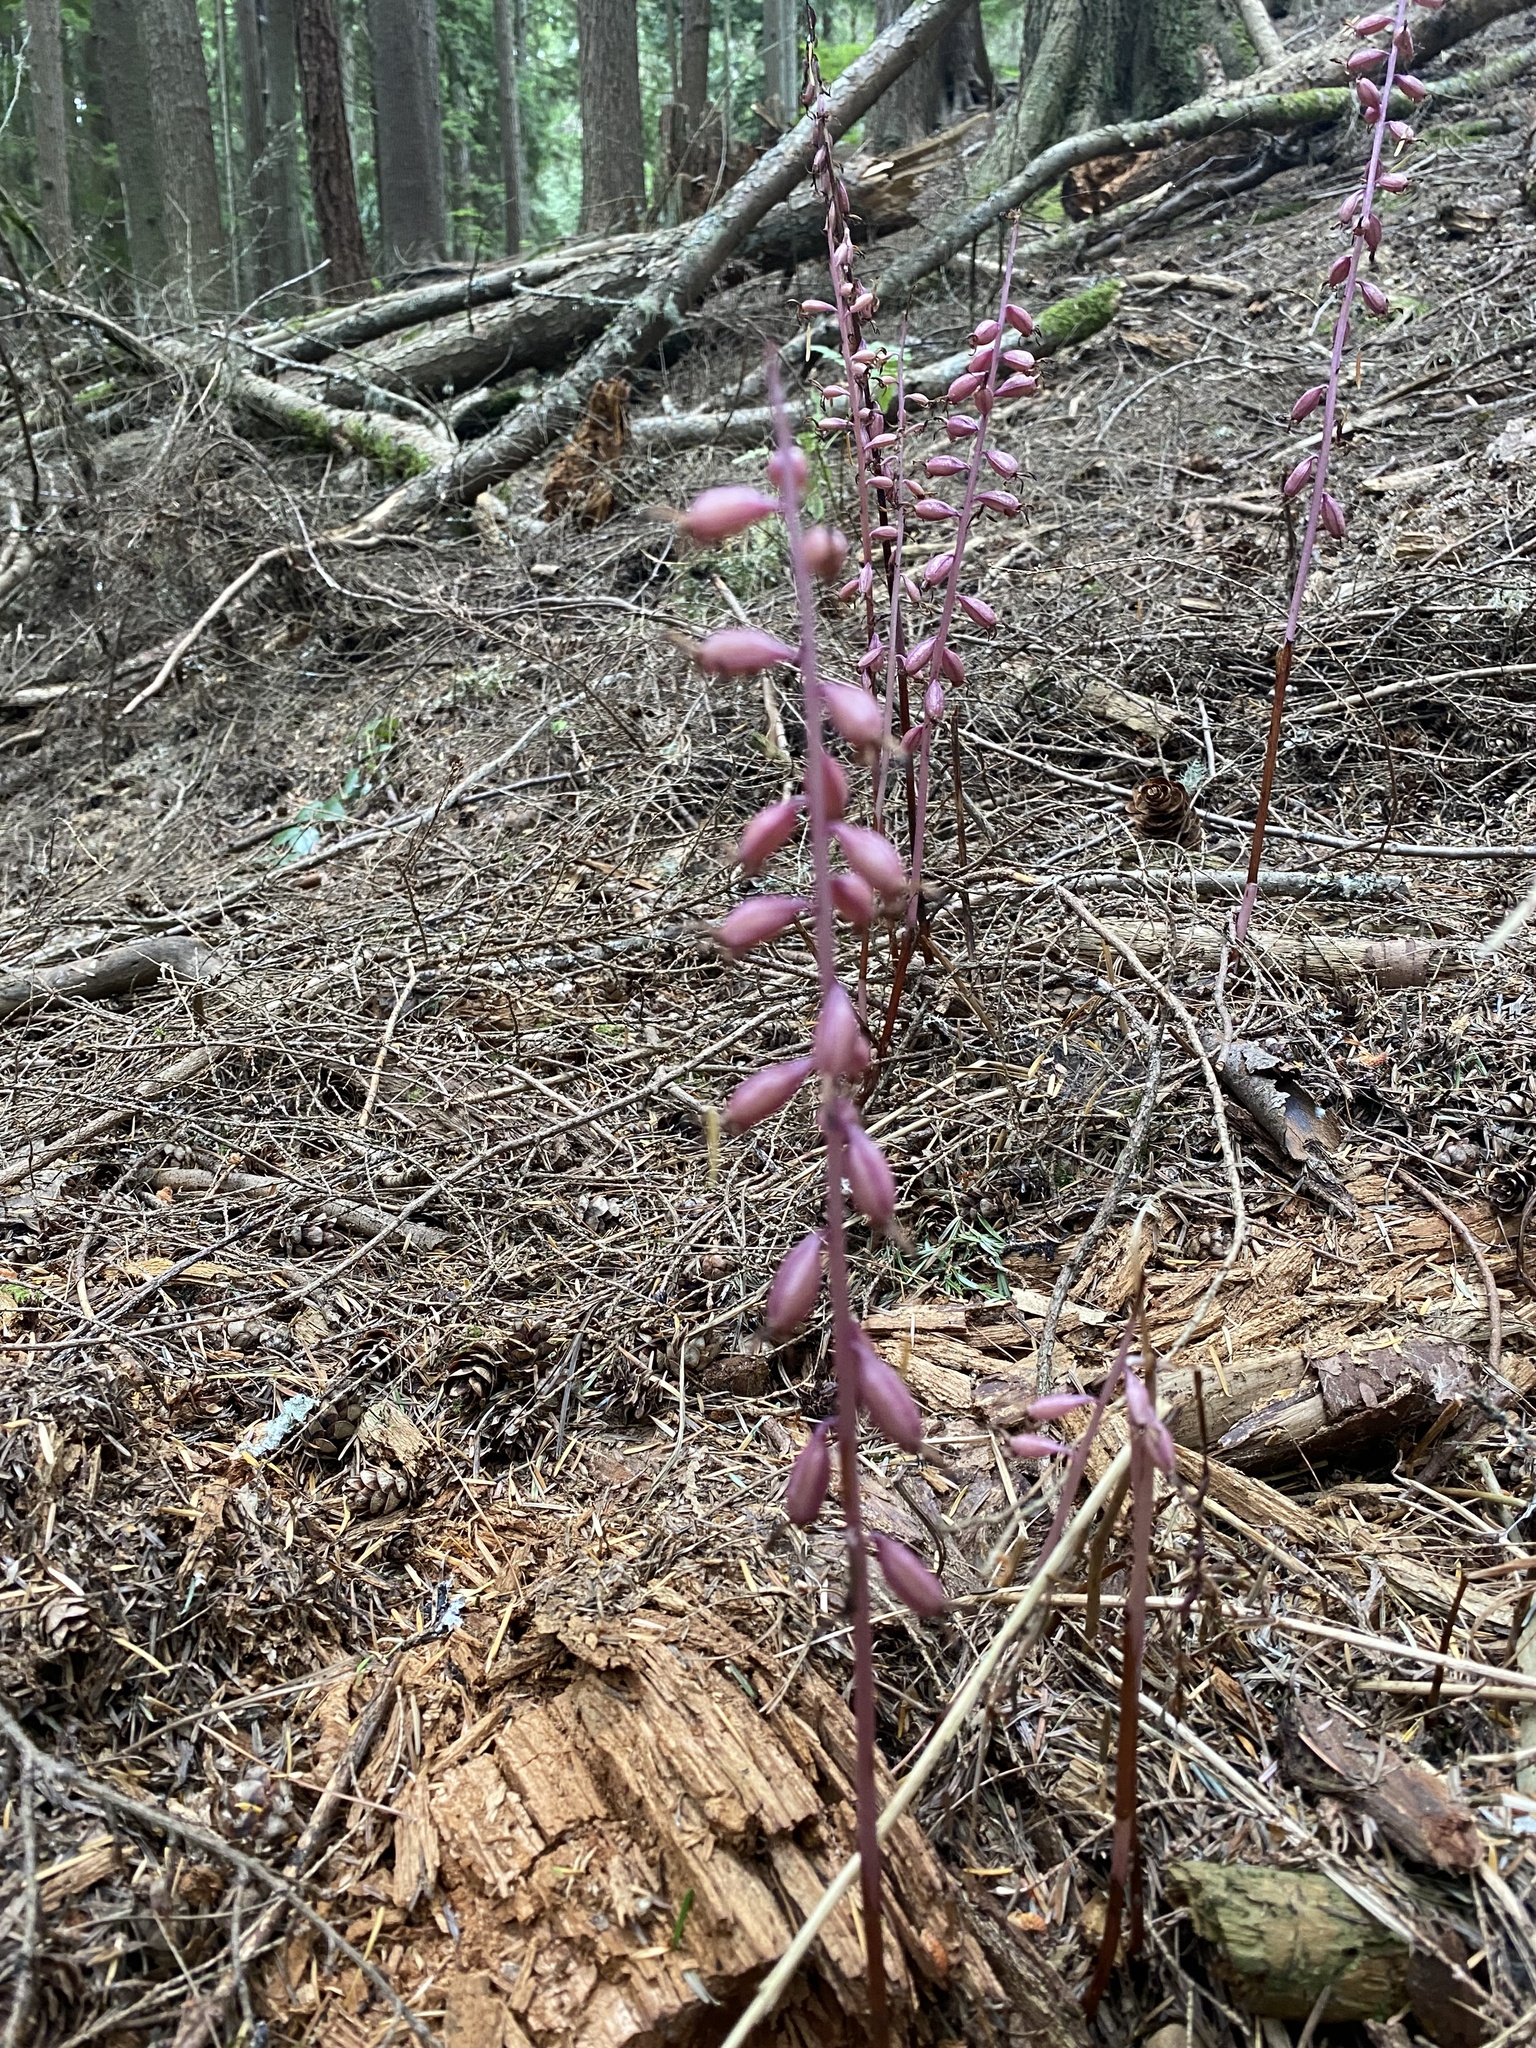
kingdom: Plantae
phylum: Tracheophyta
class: Liliopsida
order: Asparagales
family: Orchidaceae
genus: Corallorhiza
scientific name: Corallorhiza mertensiana
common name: Pacific coralroot
